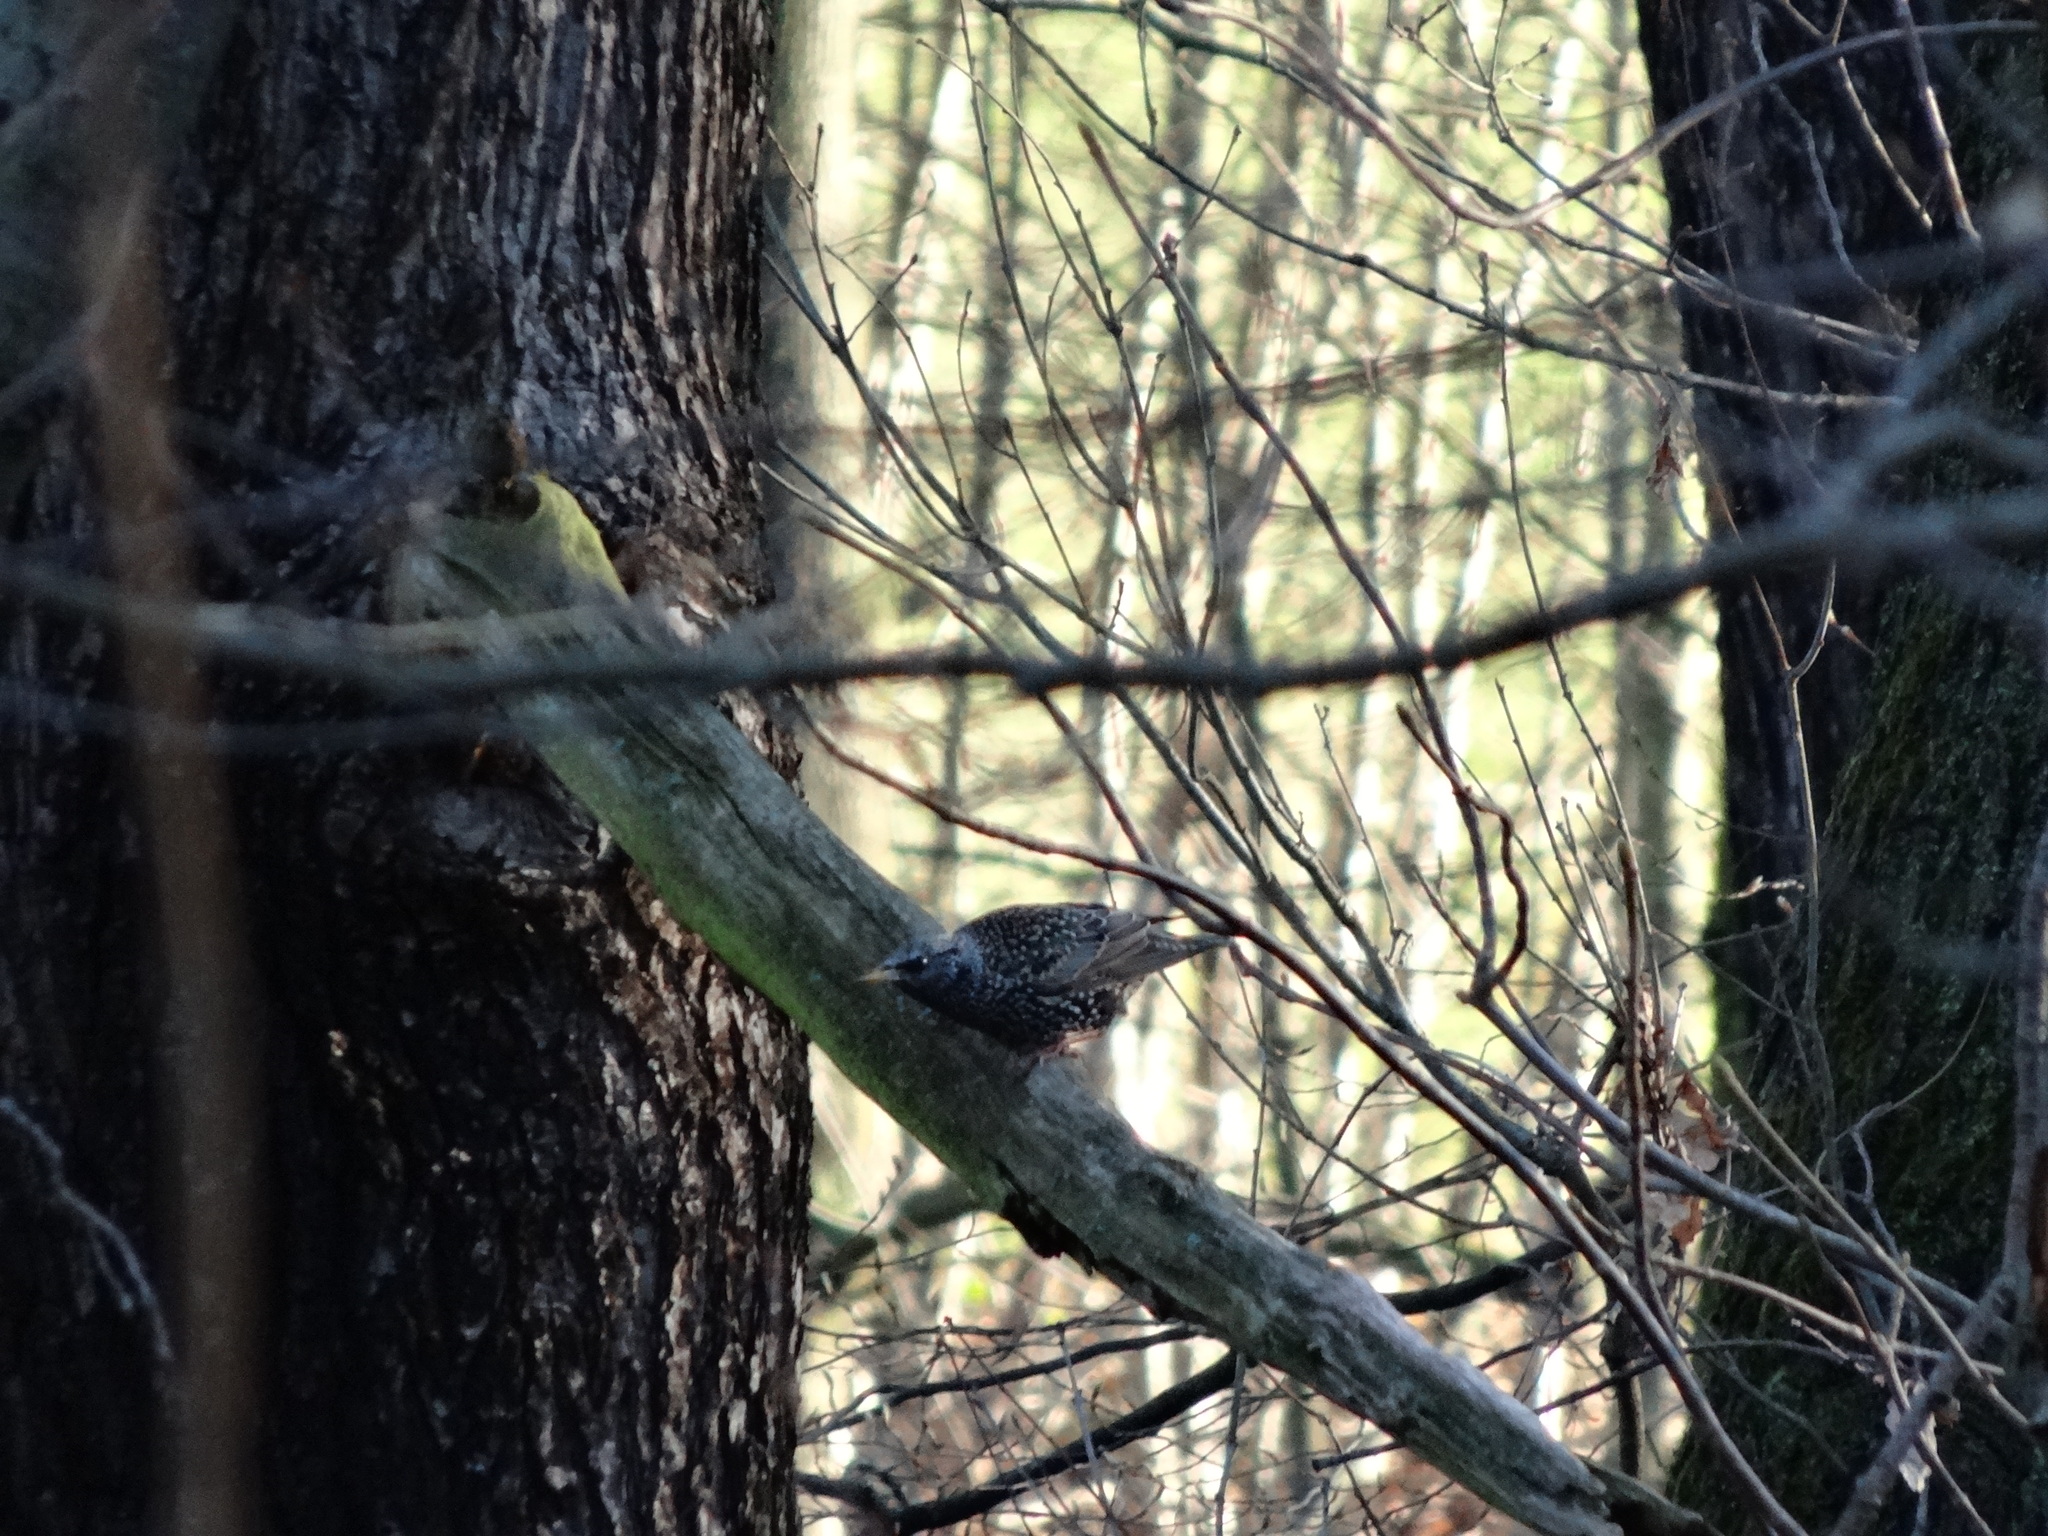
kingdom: Animalia
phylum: Chordata
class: Aves
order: Passeriformes
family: Sturnidae
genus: Sturnus
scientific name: Sturnus vulgaris
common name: Common starling
